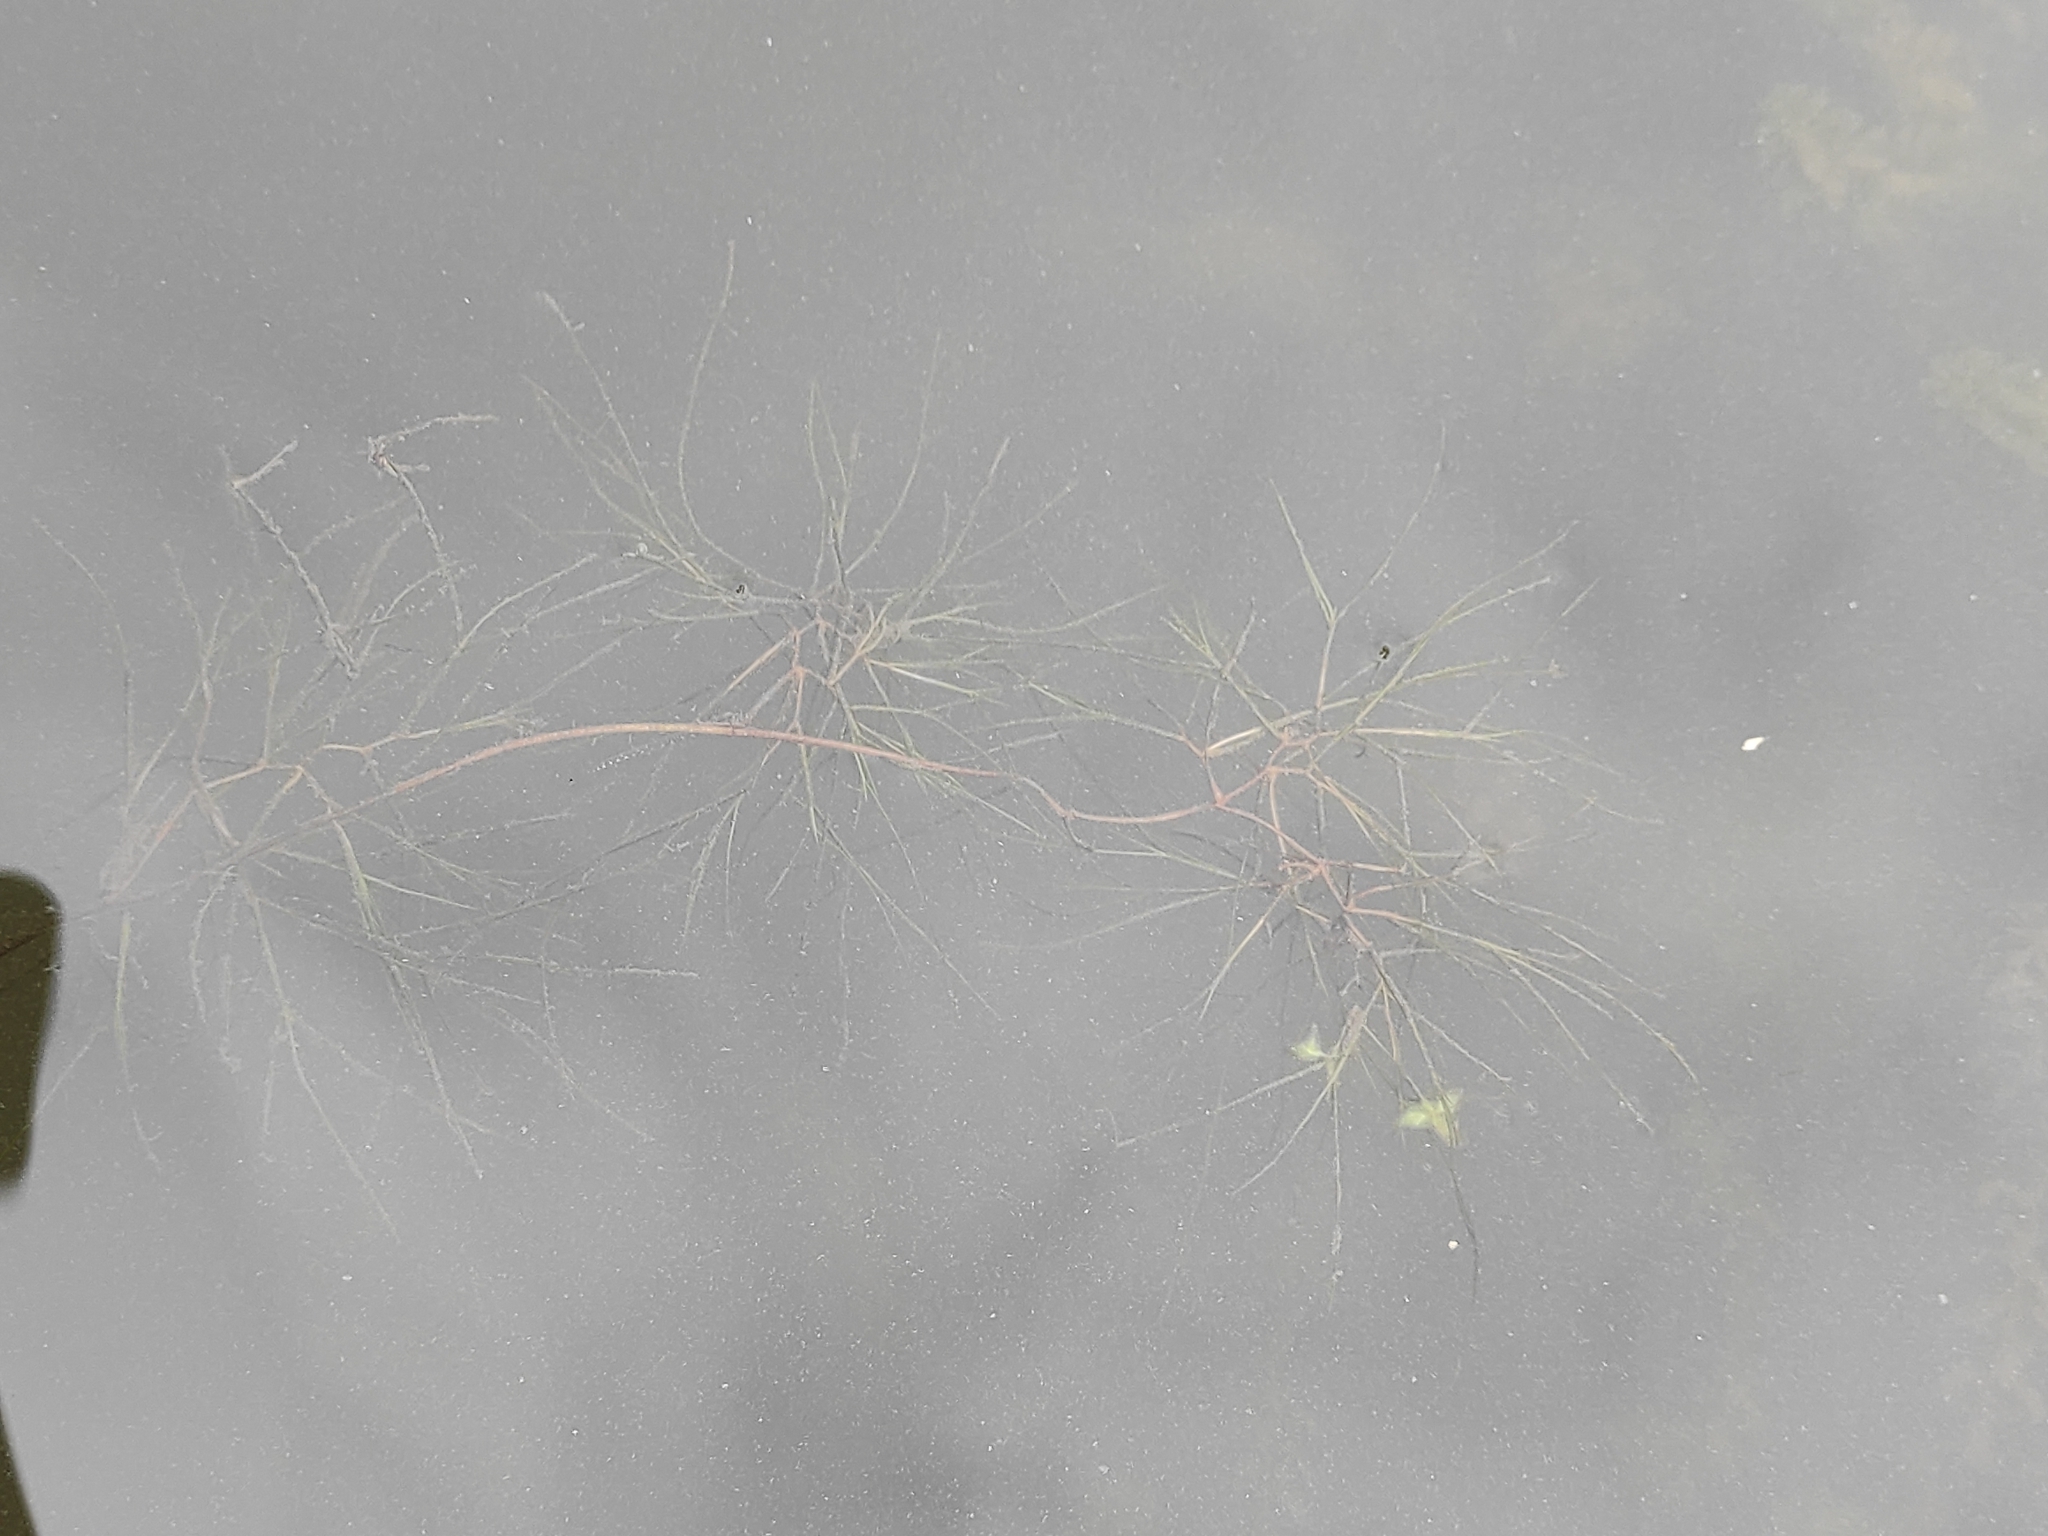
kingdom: Plantae
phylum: Tracheophyta
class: Liliopsida
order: Alismatales
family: Potamogetonaceae
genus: Stuckenia
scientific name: Stuckenia pectinata
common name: Sago pondweed
